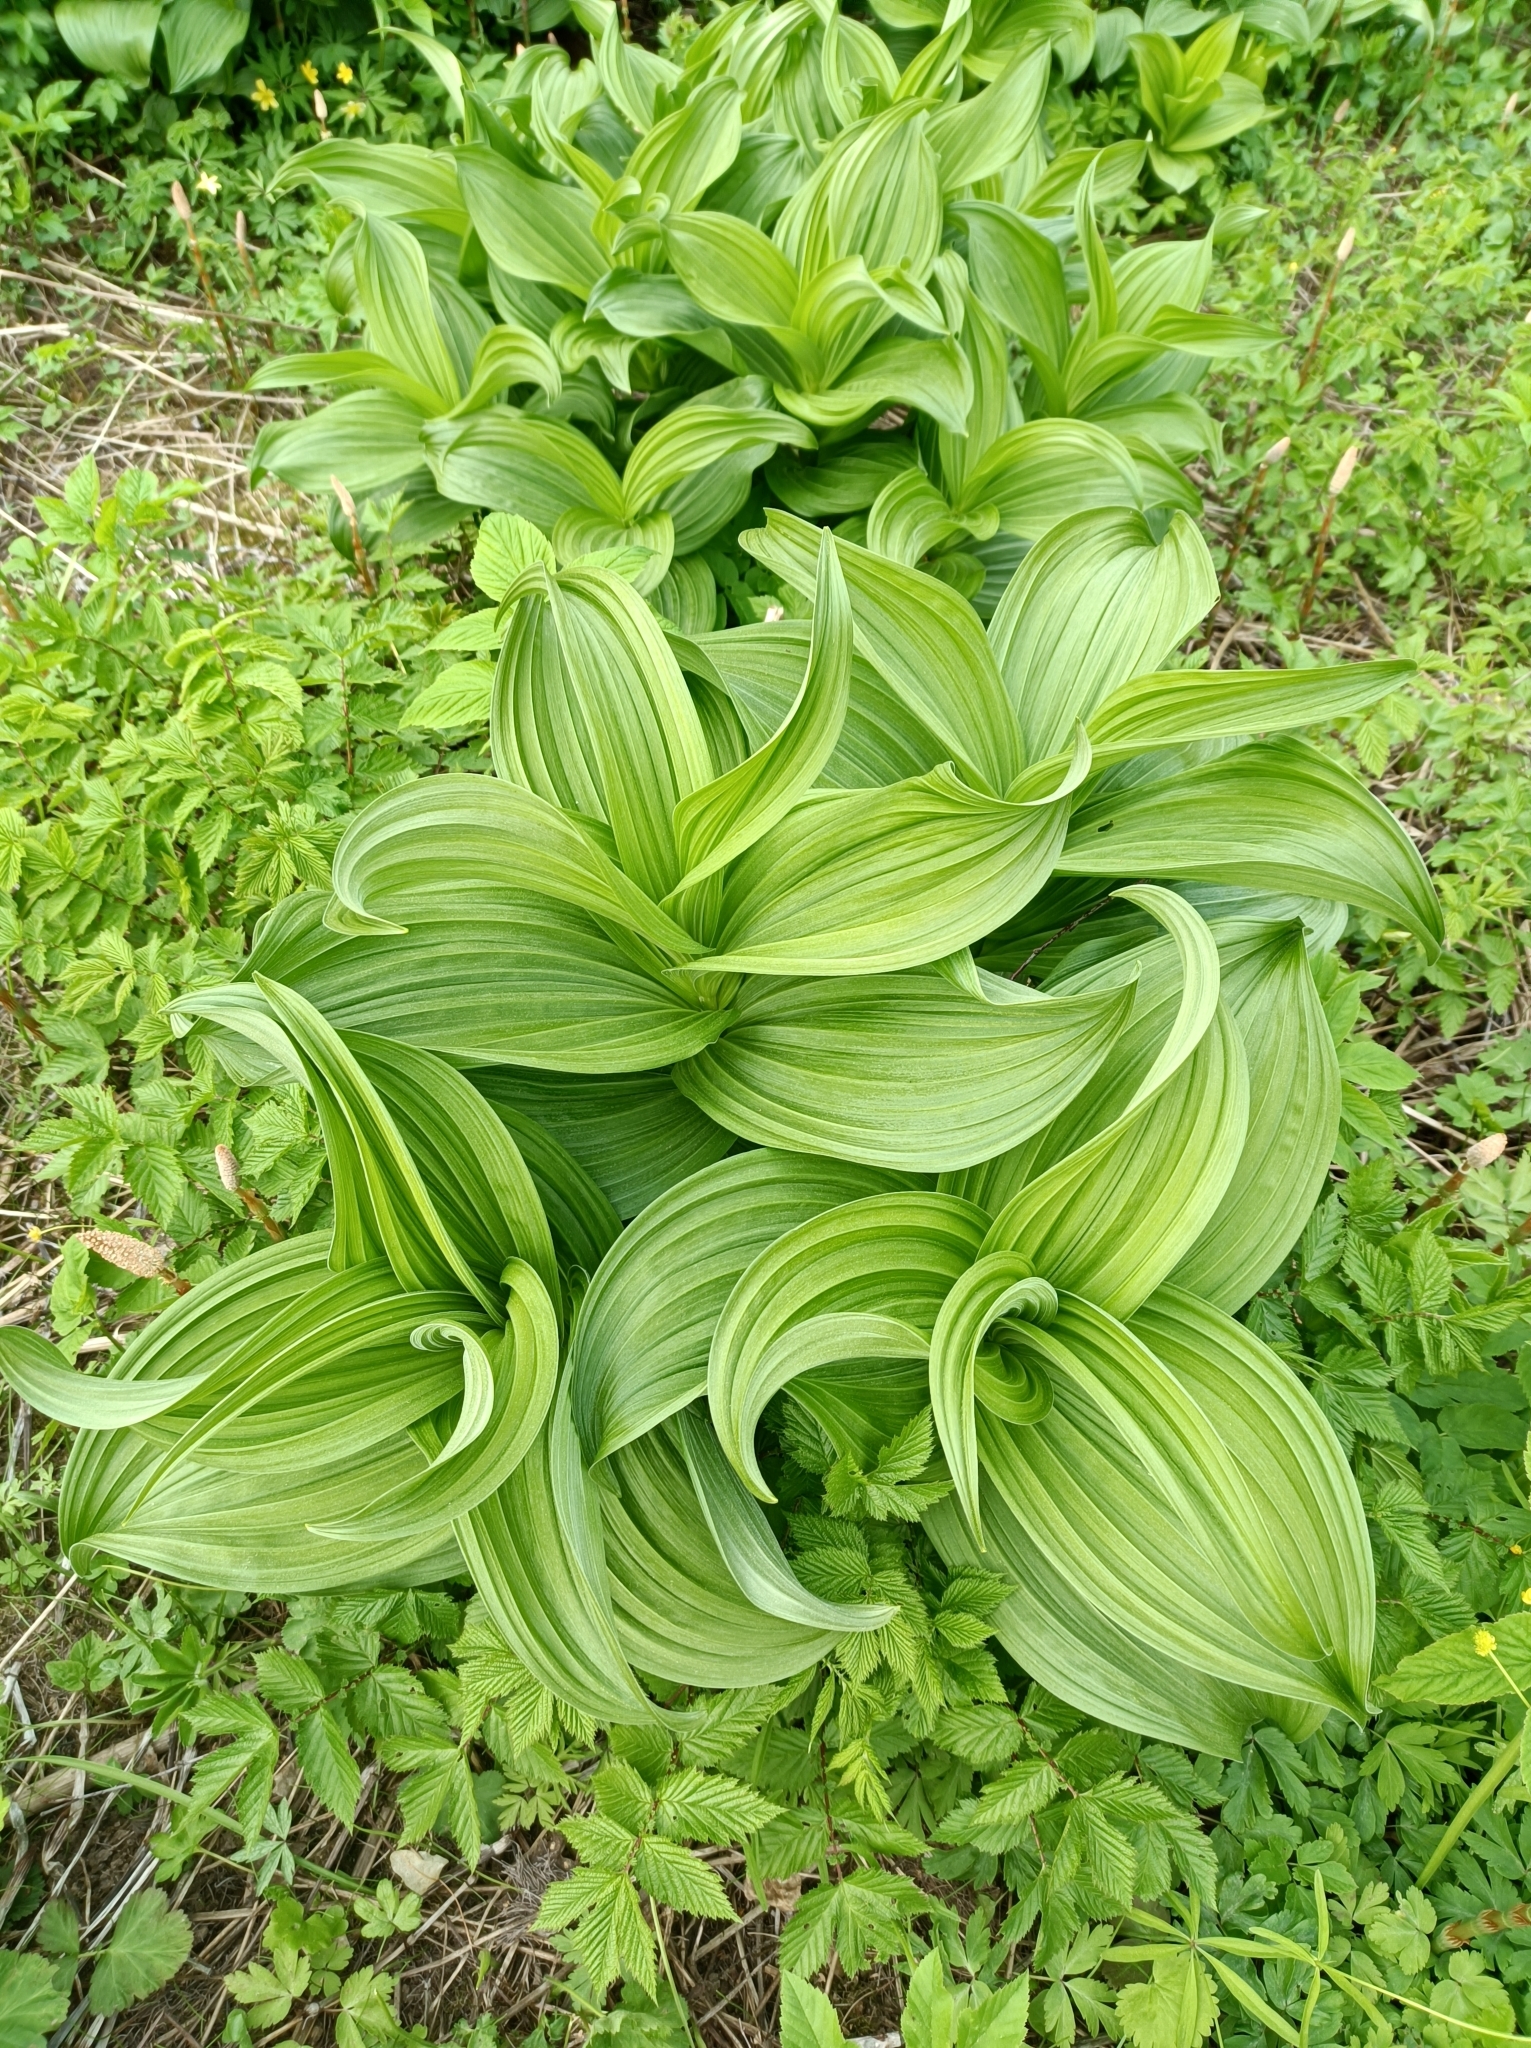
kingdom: Plantae
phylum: Tracheophyta
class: Liliopsida
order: Liliales
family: Melanthiaceae
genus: Veratrum
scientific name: Veratrum lobelianum
